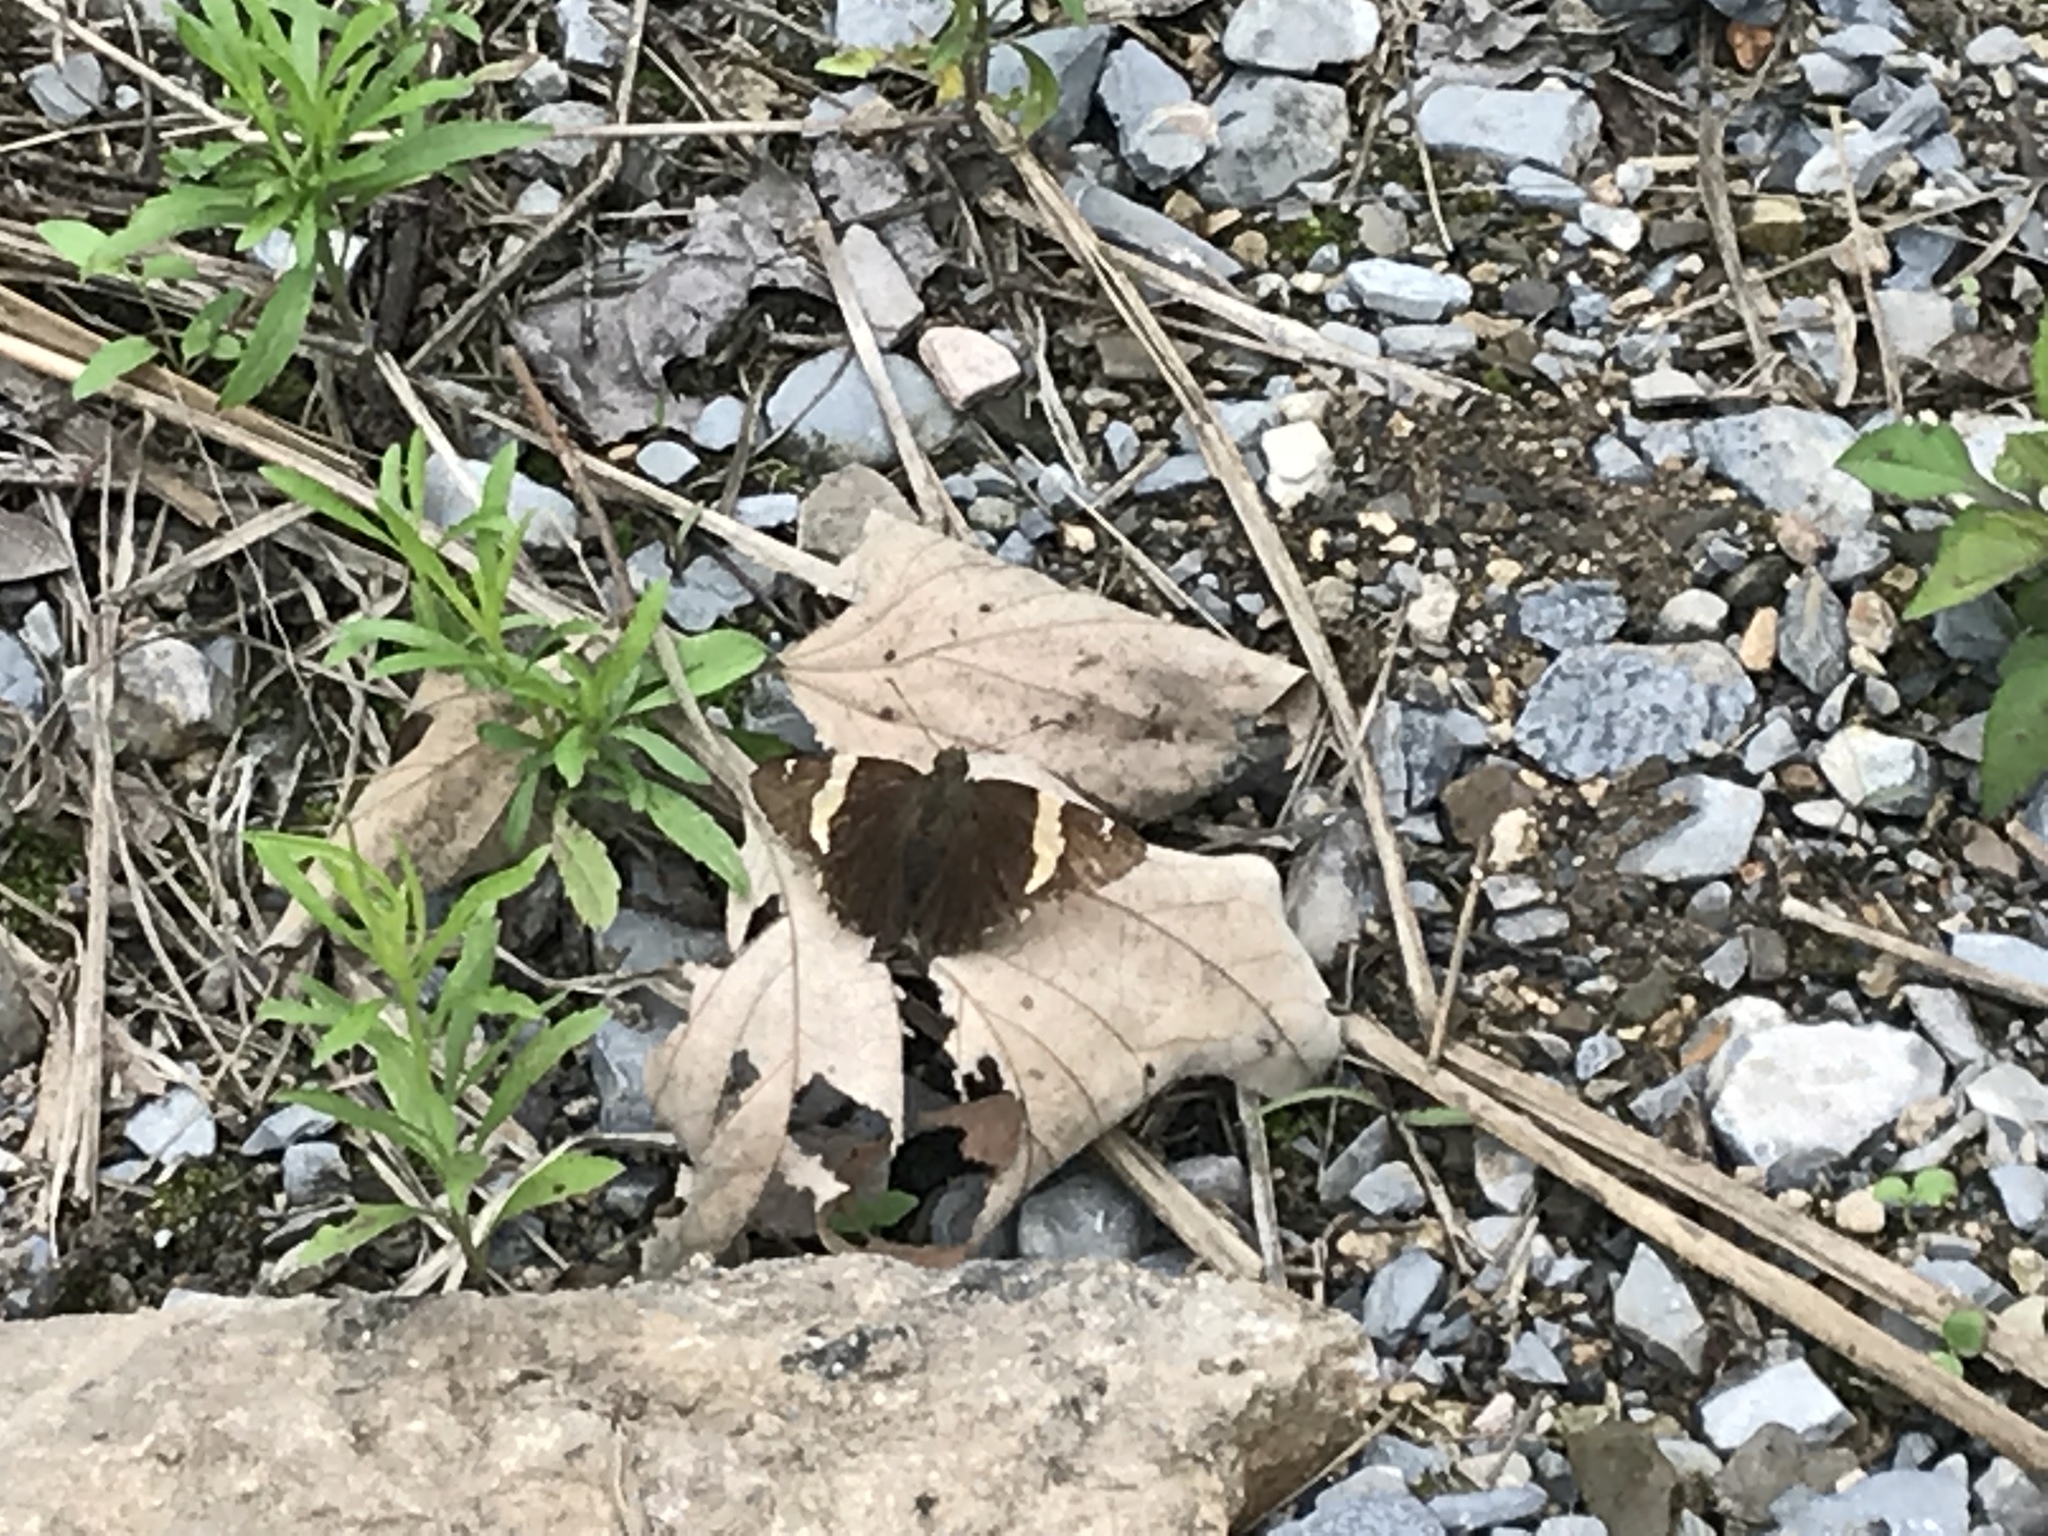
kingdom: Animalia
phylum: Arthropoda
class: Arachnida
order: Scorpiones
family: Bothriuridae
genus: Telegonus
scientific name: Telegonus cellus
